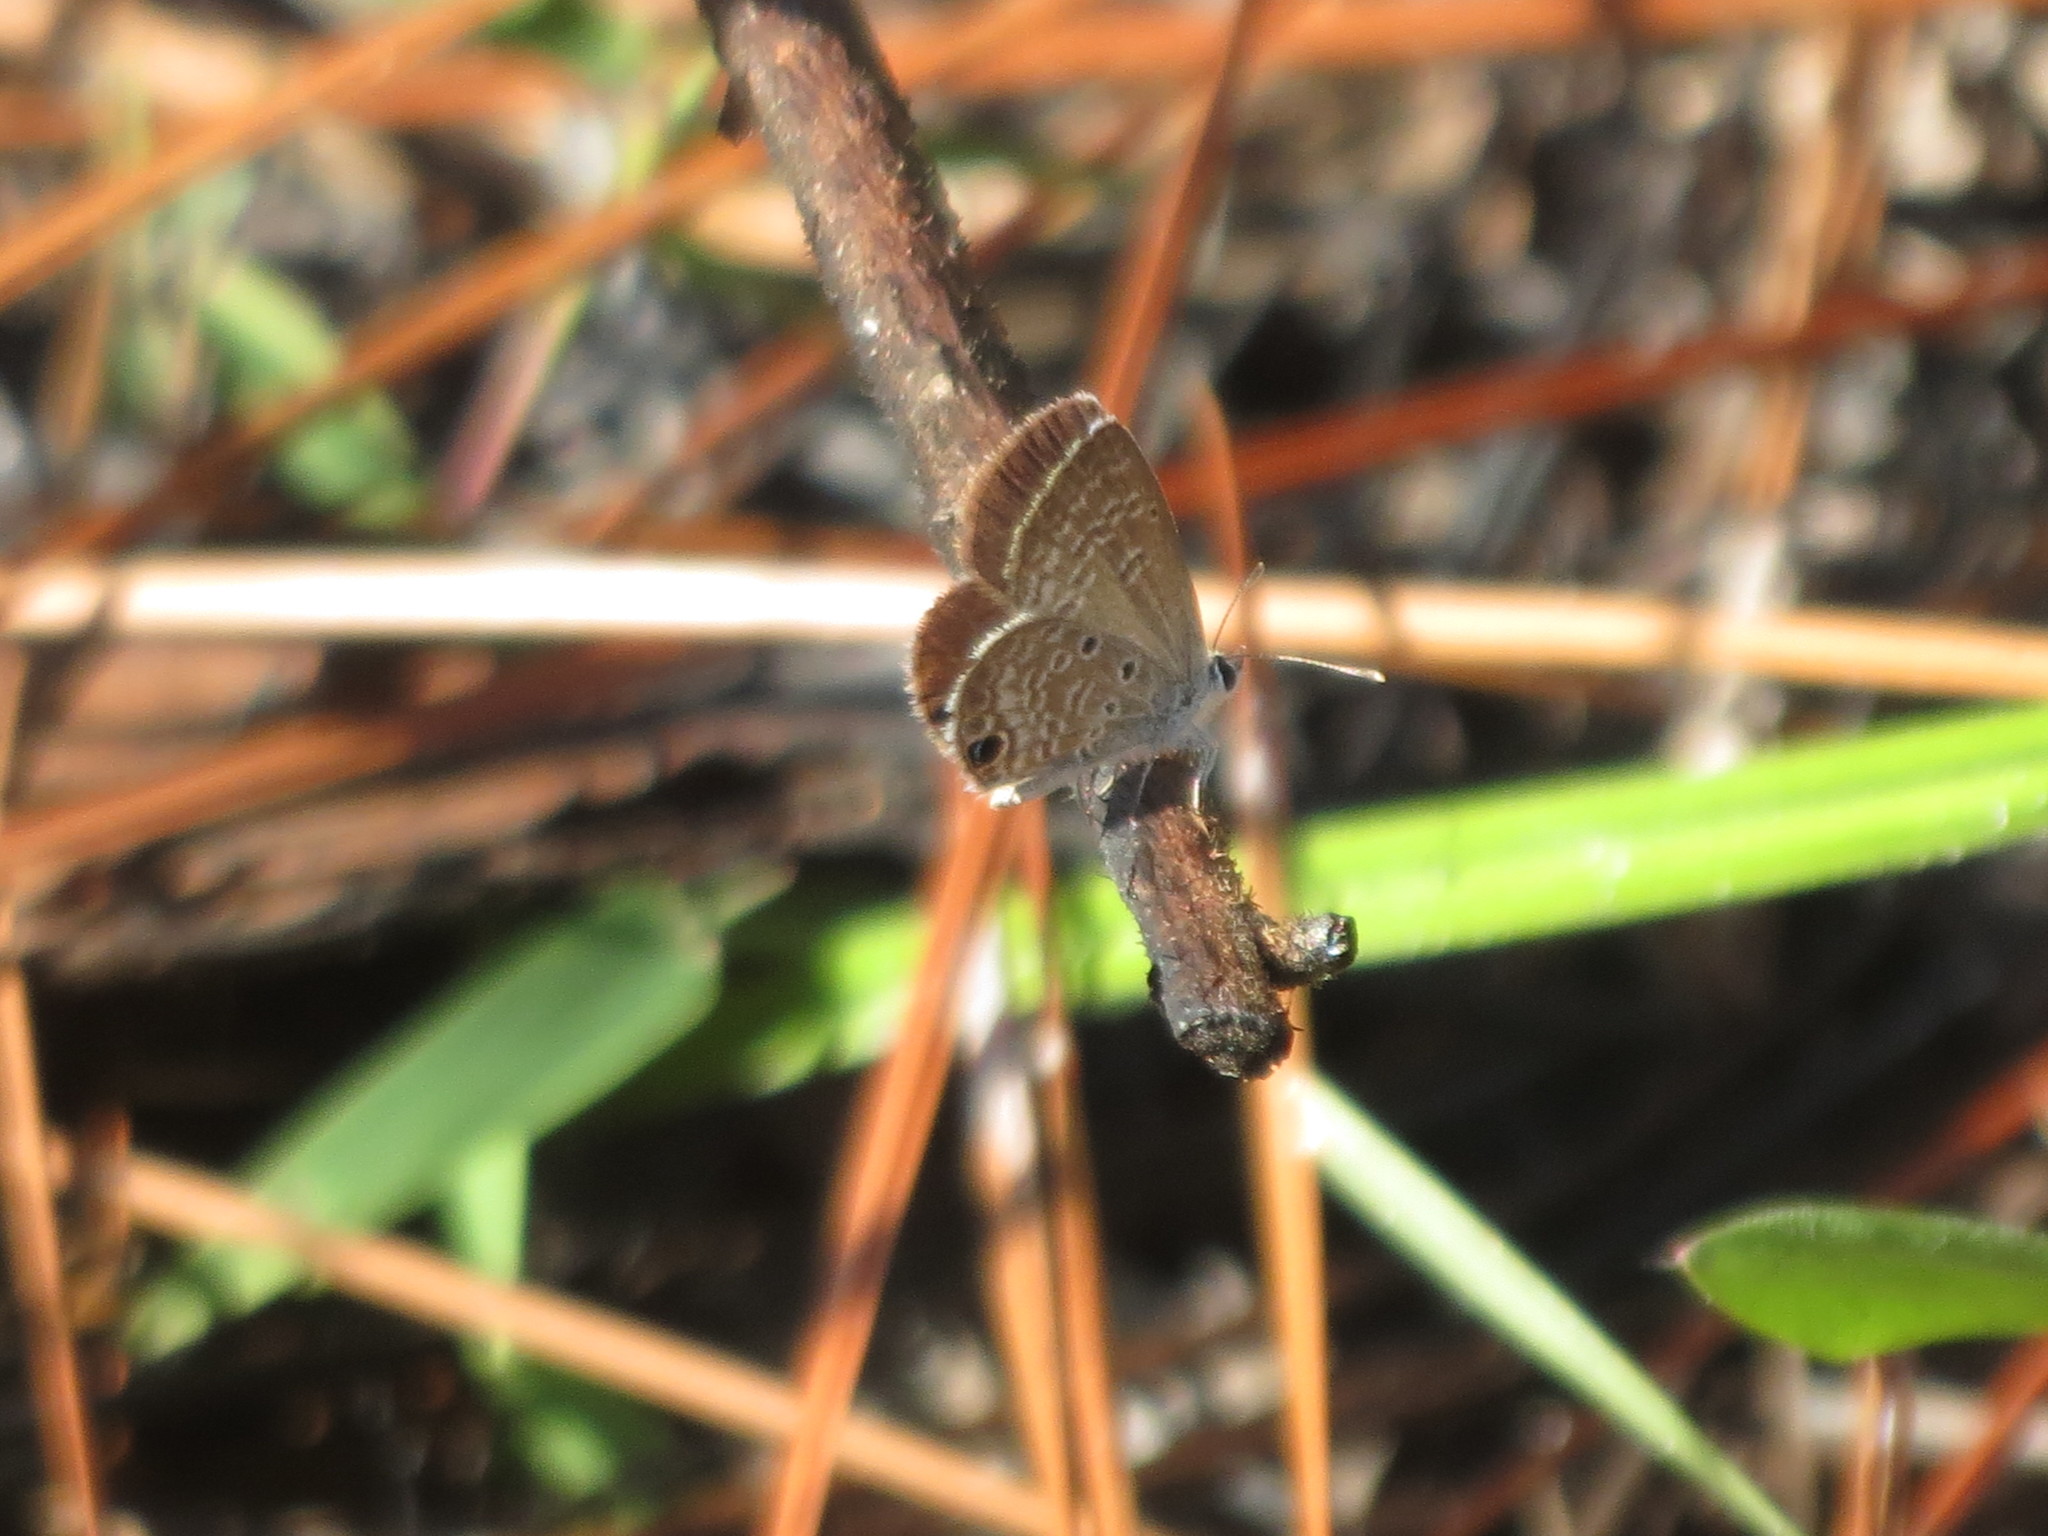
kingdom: Animalia
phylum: Arthropoda
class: Insecta
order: Lepidoptera
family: Lycaenidae
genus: Hemiargus
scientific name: Hemiargus ceraunus
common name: Ceraunus blue
